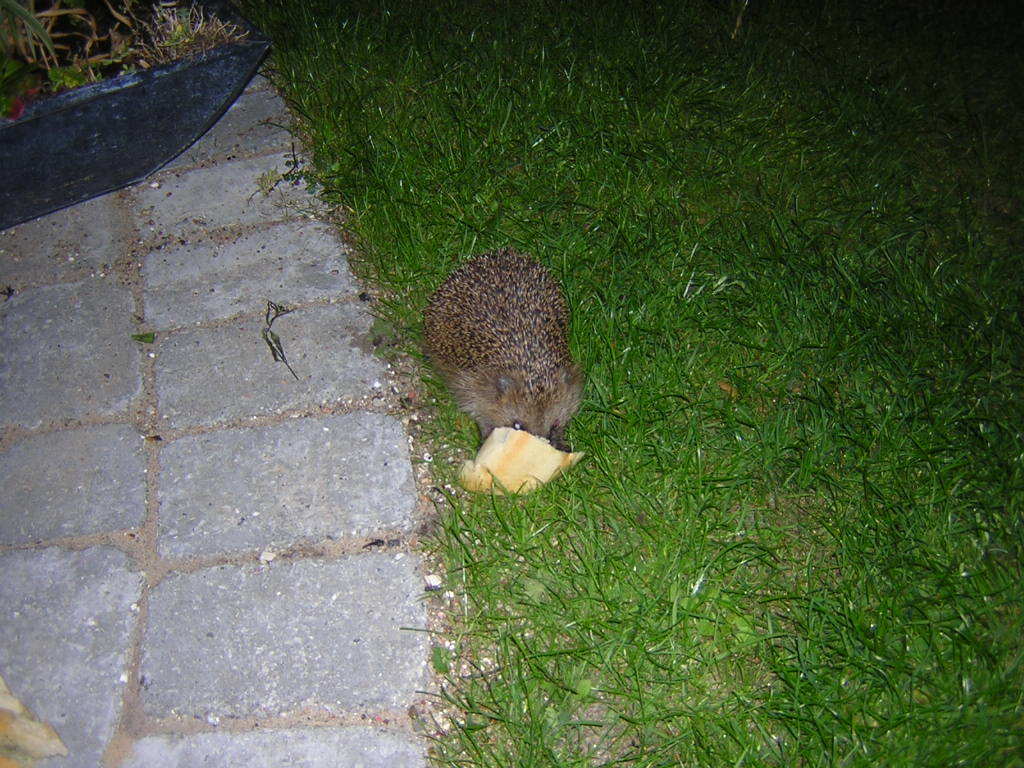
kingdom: Animalia
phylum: Chordata
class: Mammalia
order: Erinaceomorpha
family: Erinaceidae
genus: Erinaceus
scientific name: Erinaceus europaeus
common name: West european hedgehog
